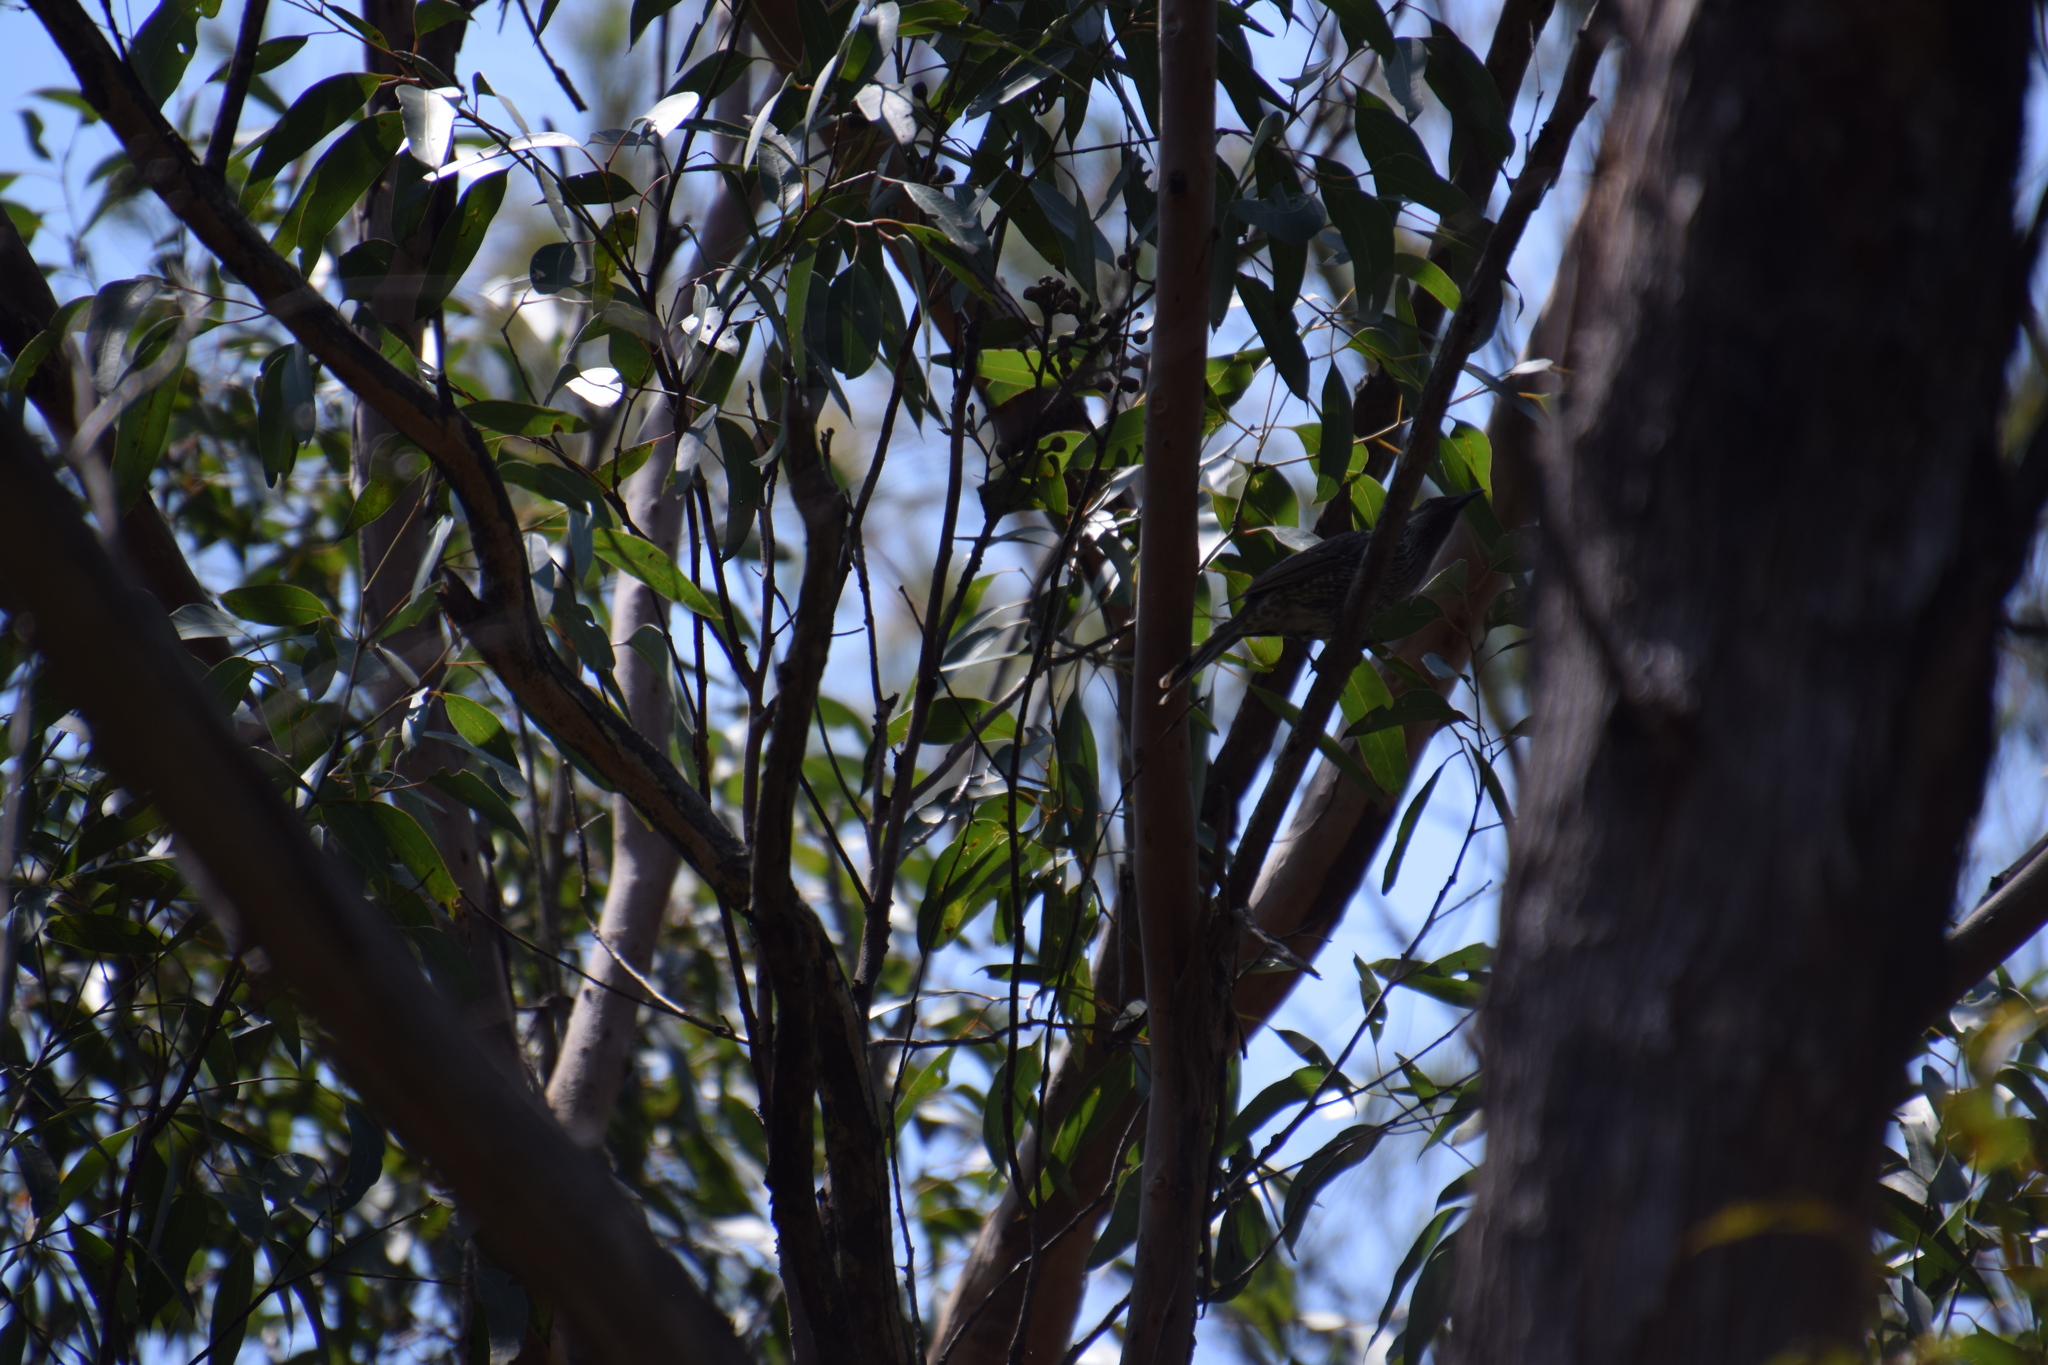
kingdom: Animalia
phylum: Chordata
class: Aves
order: Passeriformes
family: Meliphagidae
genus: Anthochaera
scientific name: Anthochaera chrysoptera
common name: Little wattlebird
